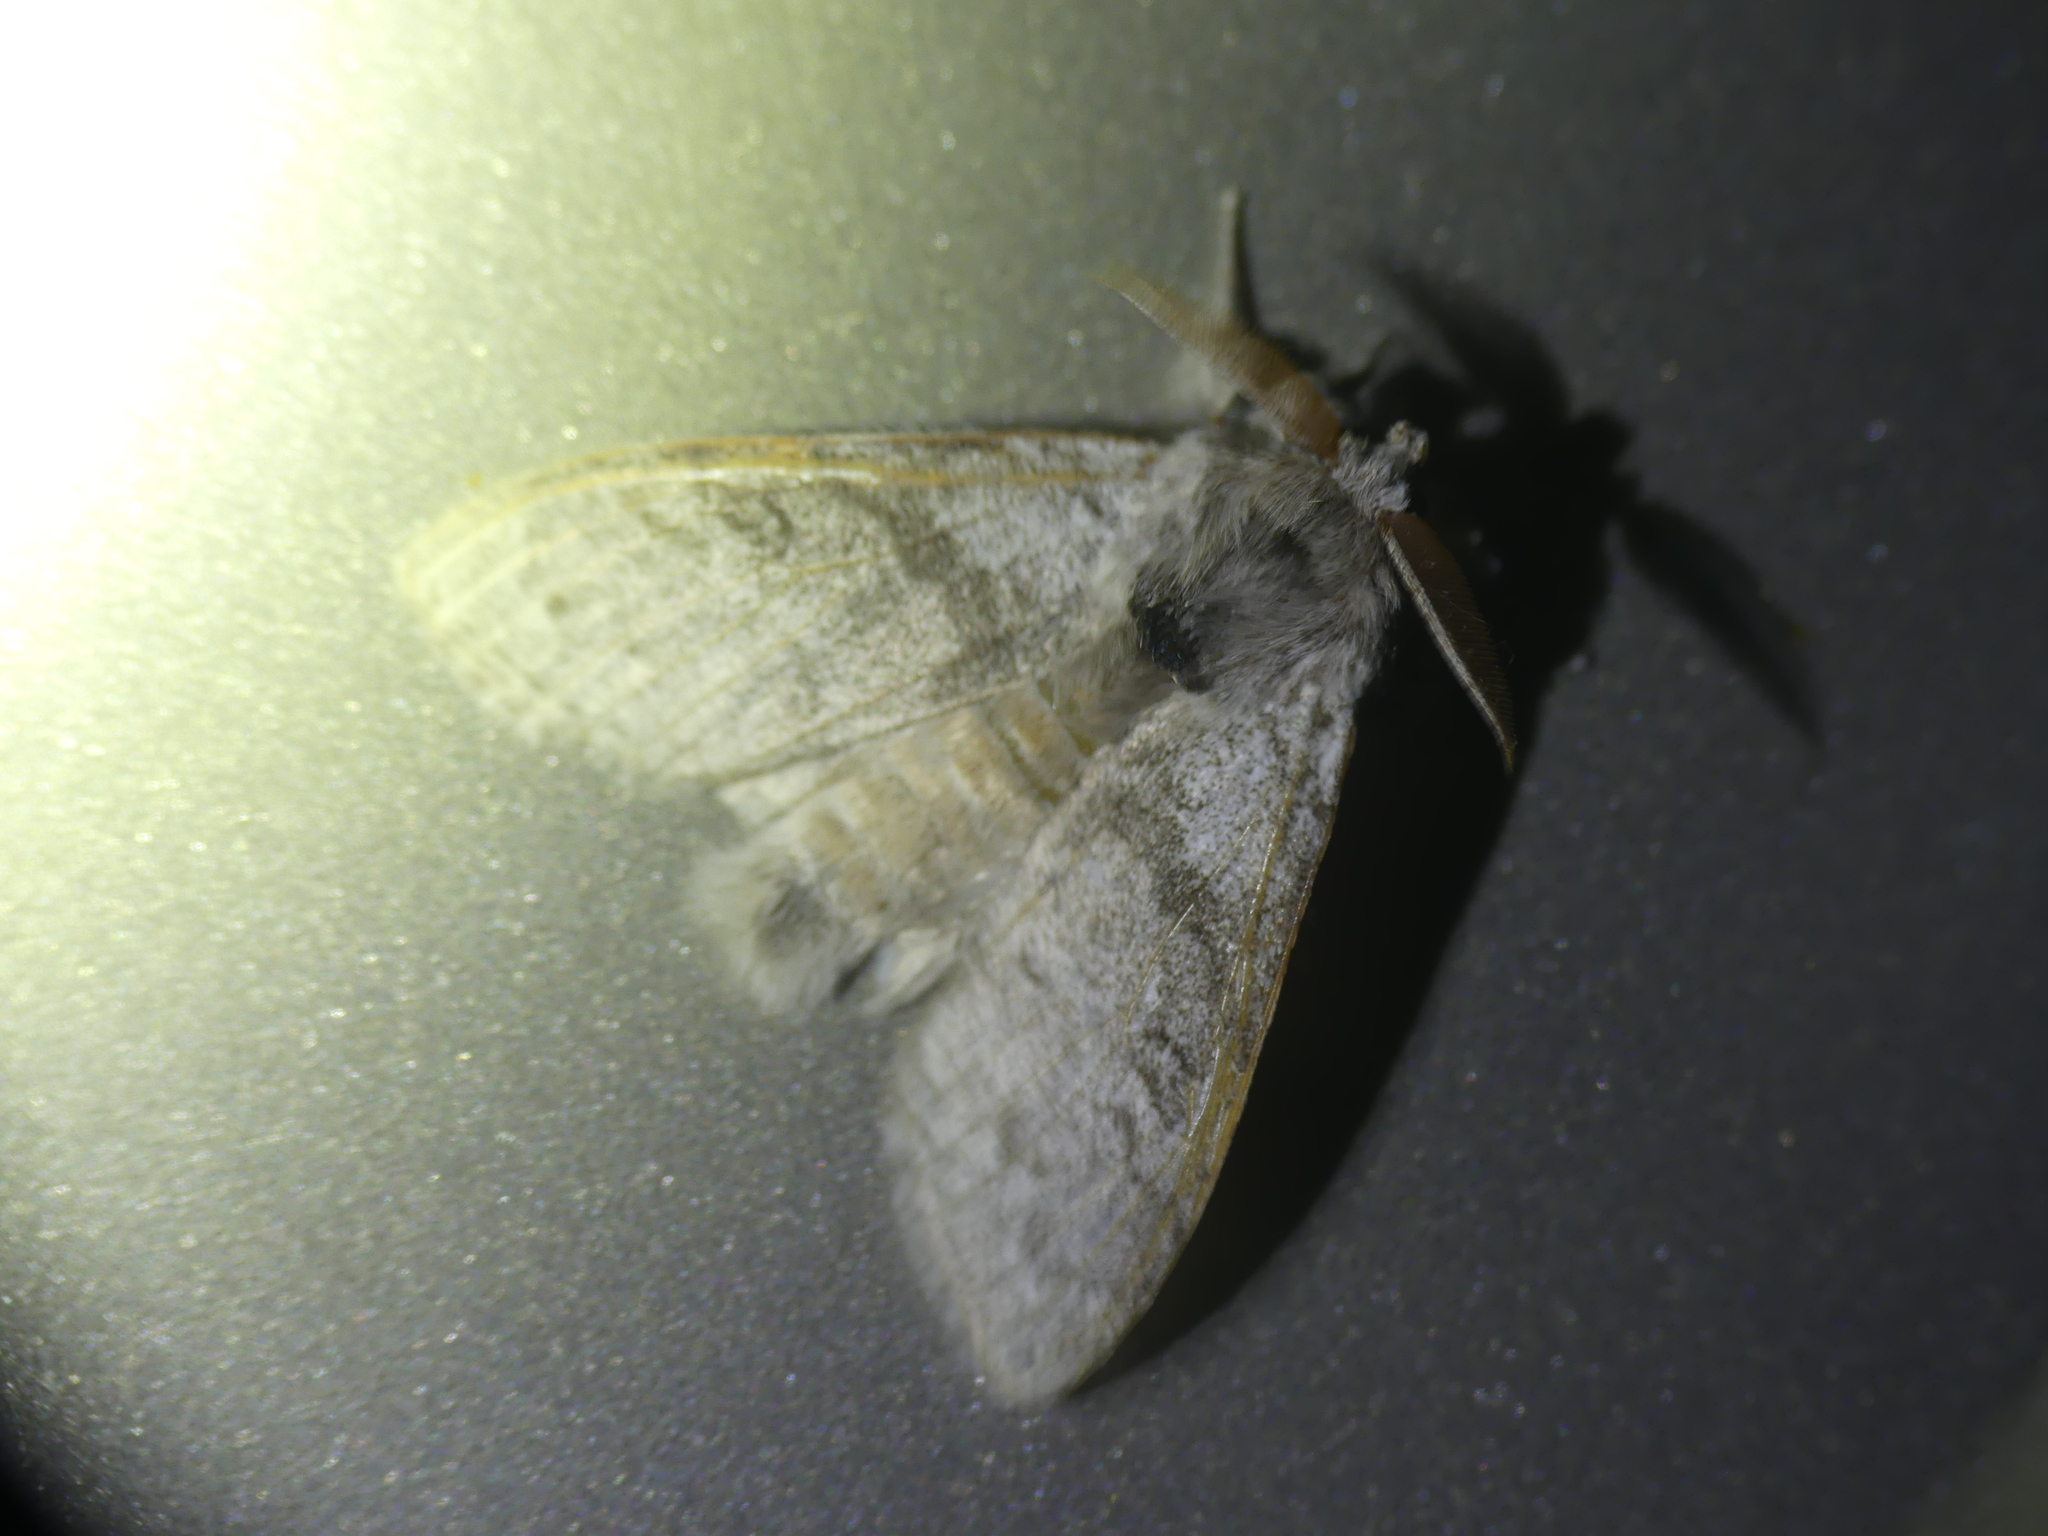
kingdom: Animalia
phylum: Arthropoda
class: Insecta
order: Lepidoptera
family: Erebidae
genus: Calliteara
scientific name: Calliteara pudibunda
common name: Pale tussock
